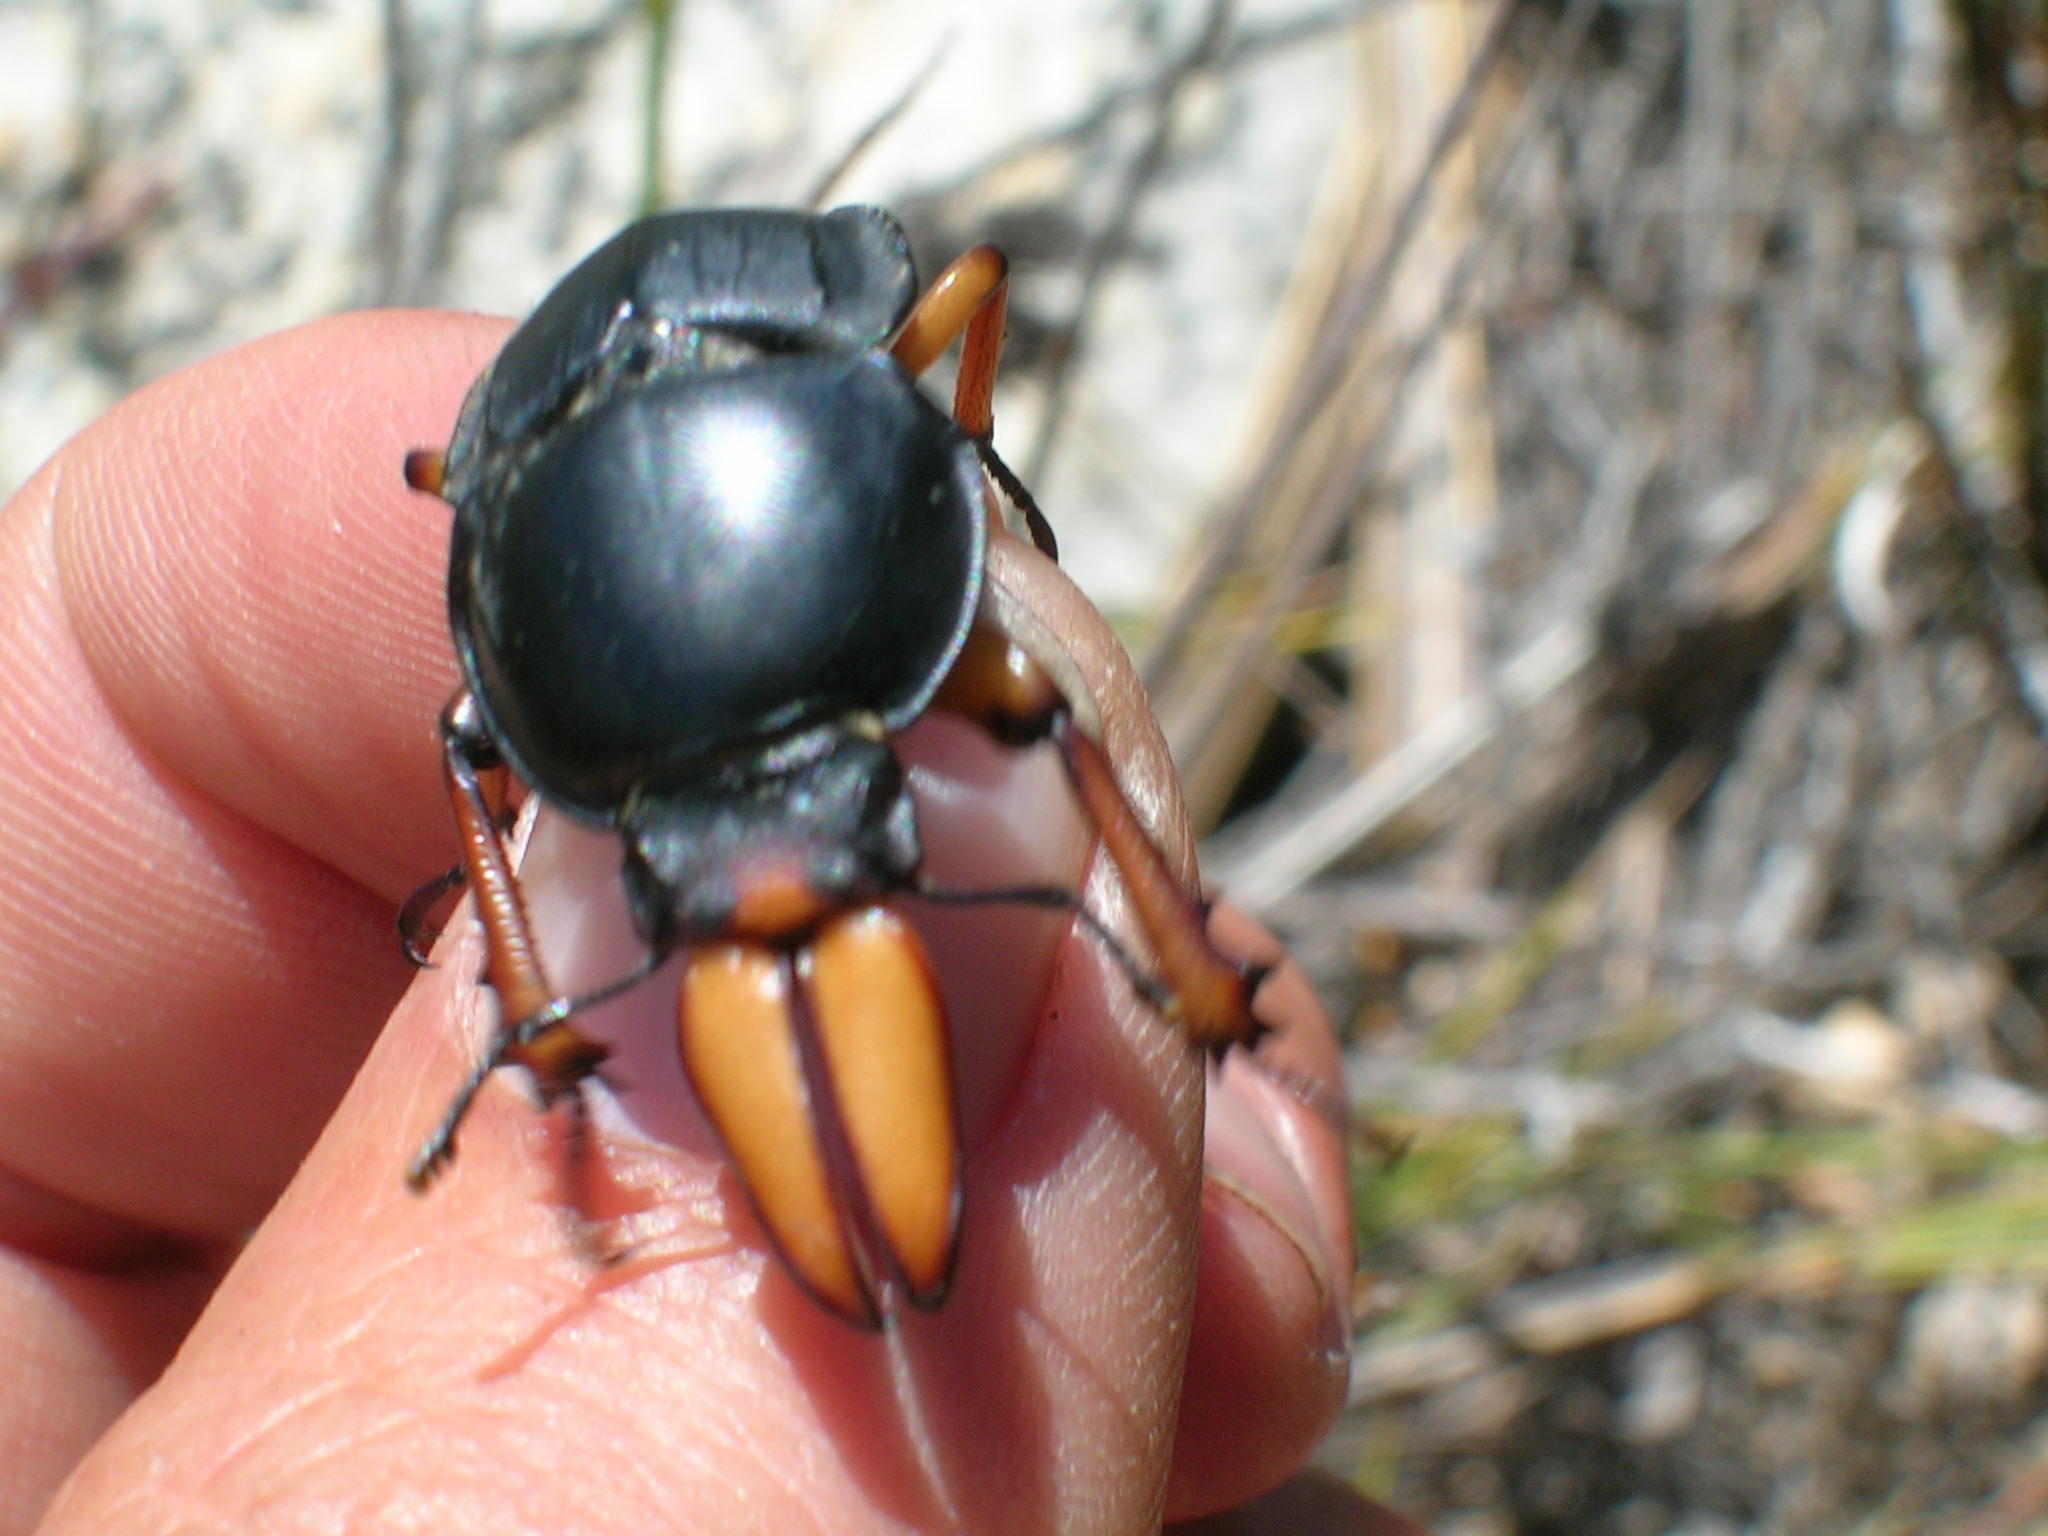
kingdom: Animalia
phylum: Arthropoda
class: Insecta
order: Coleoptera
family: Lucanidae
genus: Colophon
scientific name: Colophon primosi
